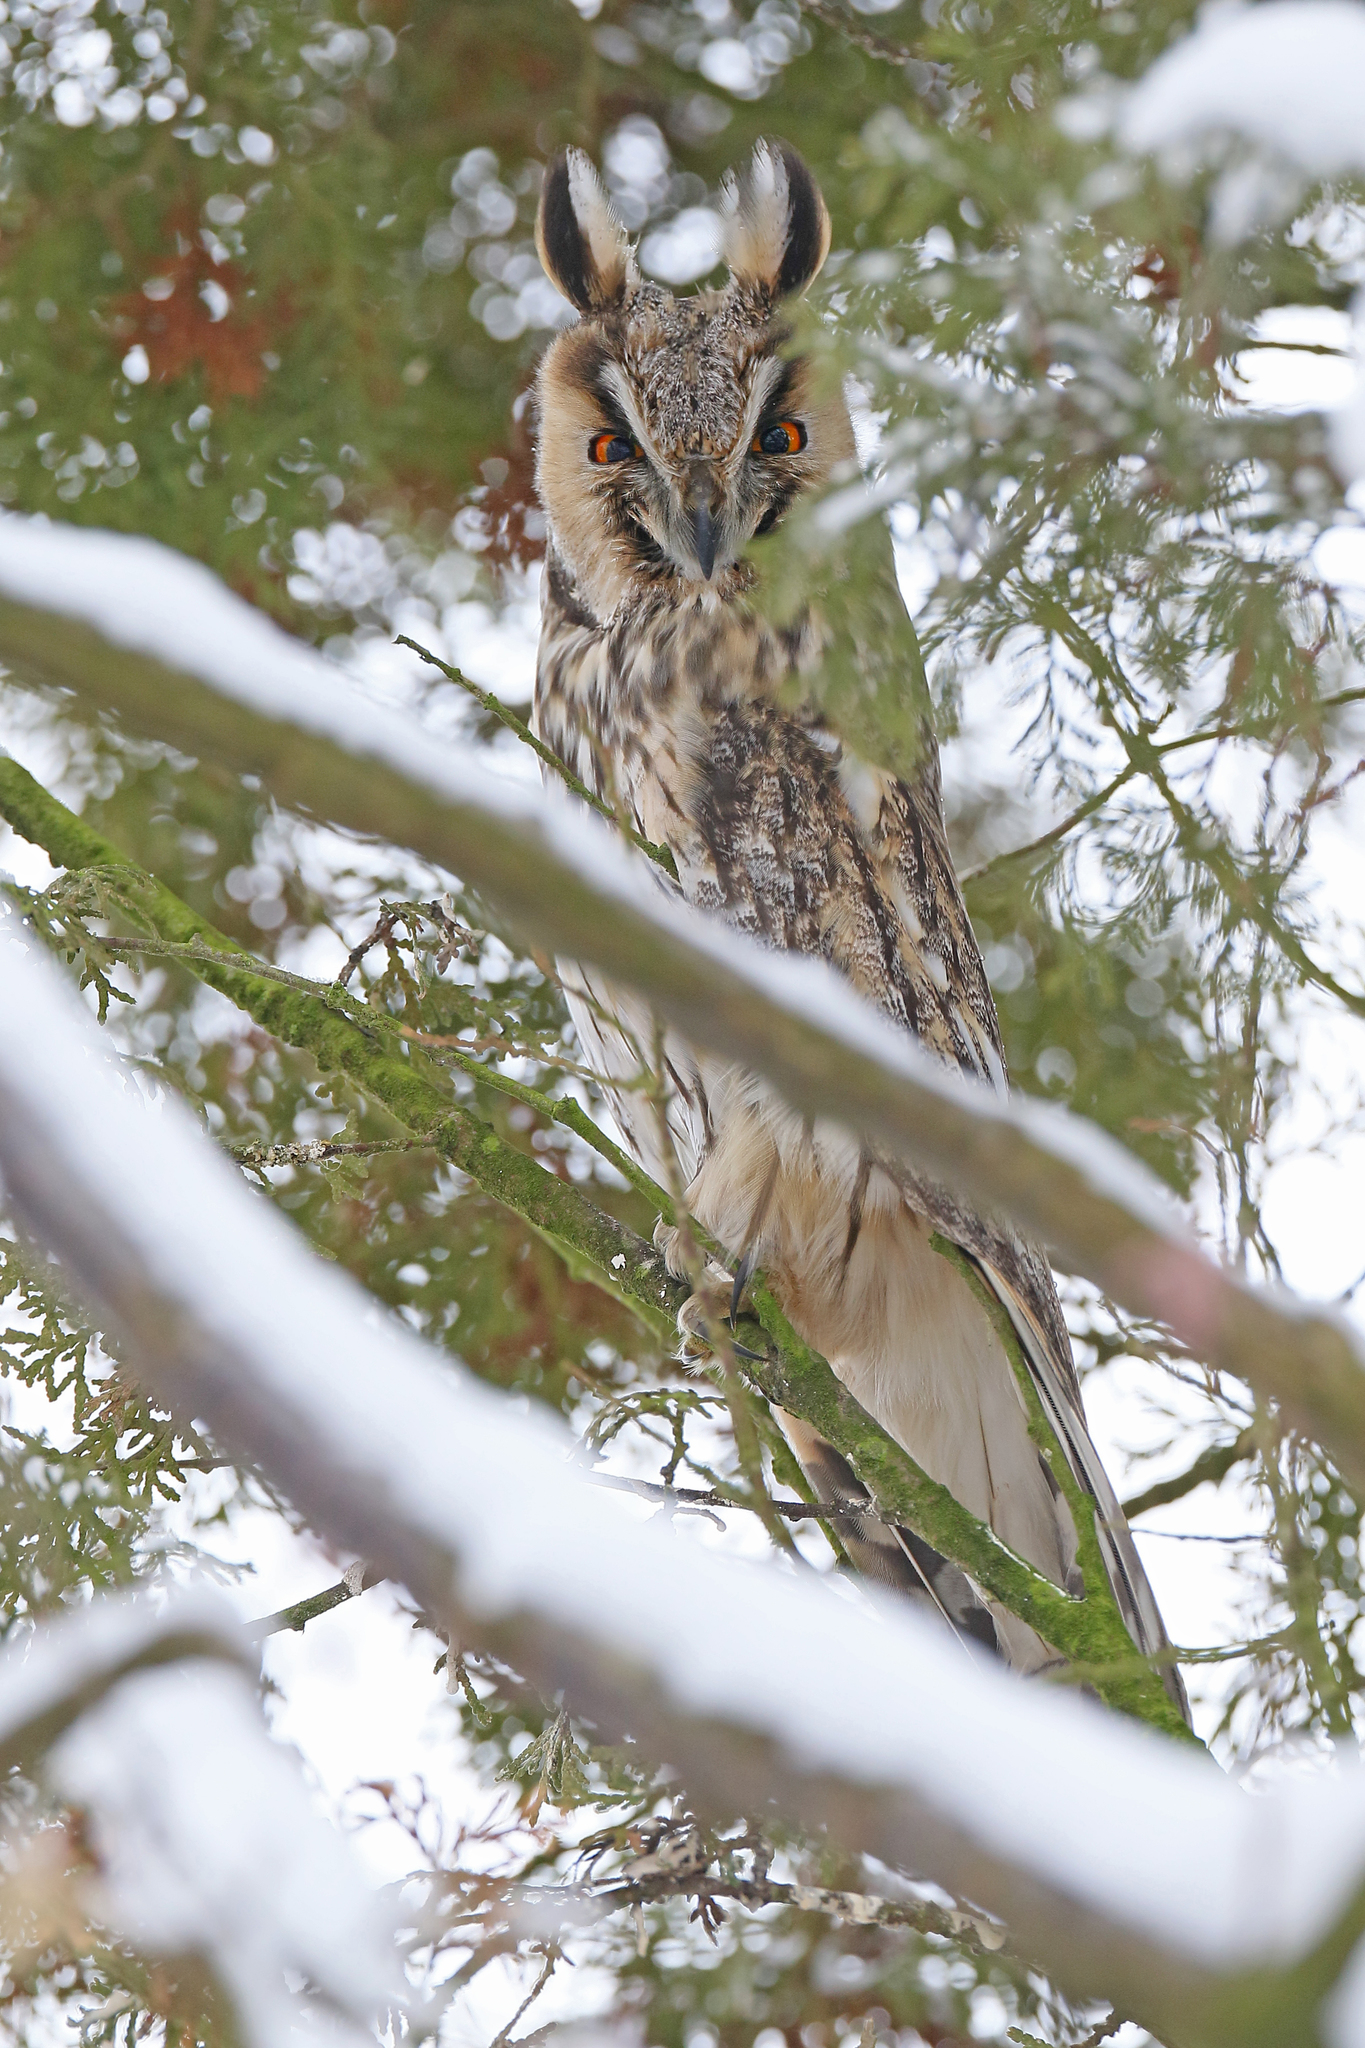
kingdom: Animalia
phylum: Chordata
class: Aves
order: Strigiformes
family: Strigidae
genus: Asio
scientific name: Asio otus
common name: Long-eared owl
